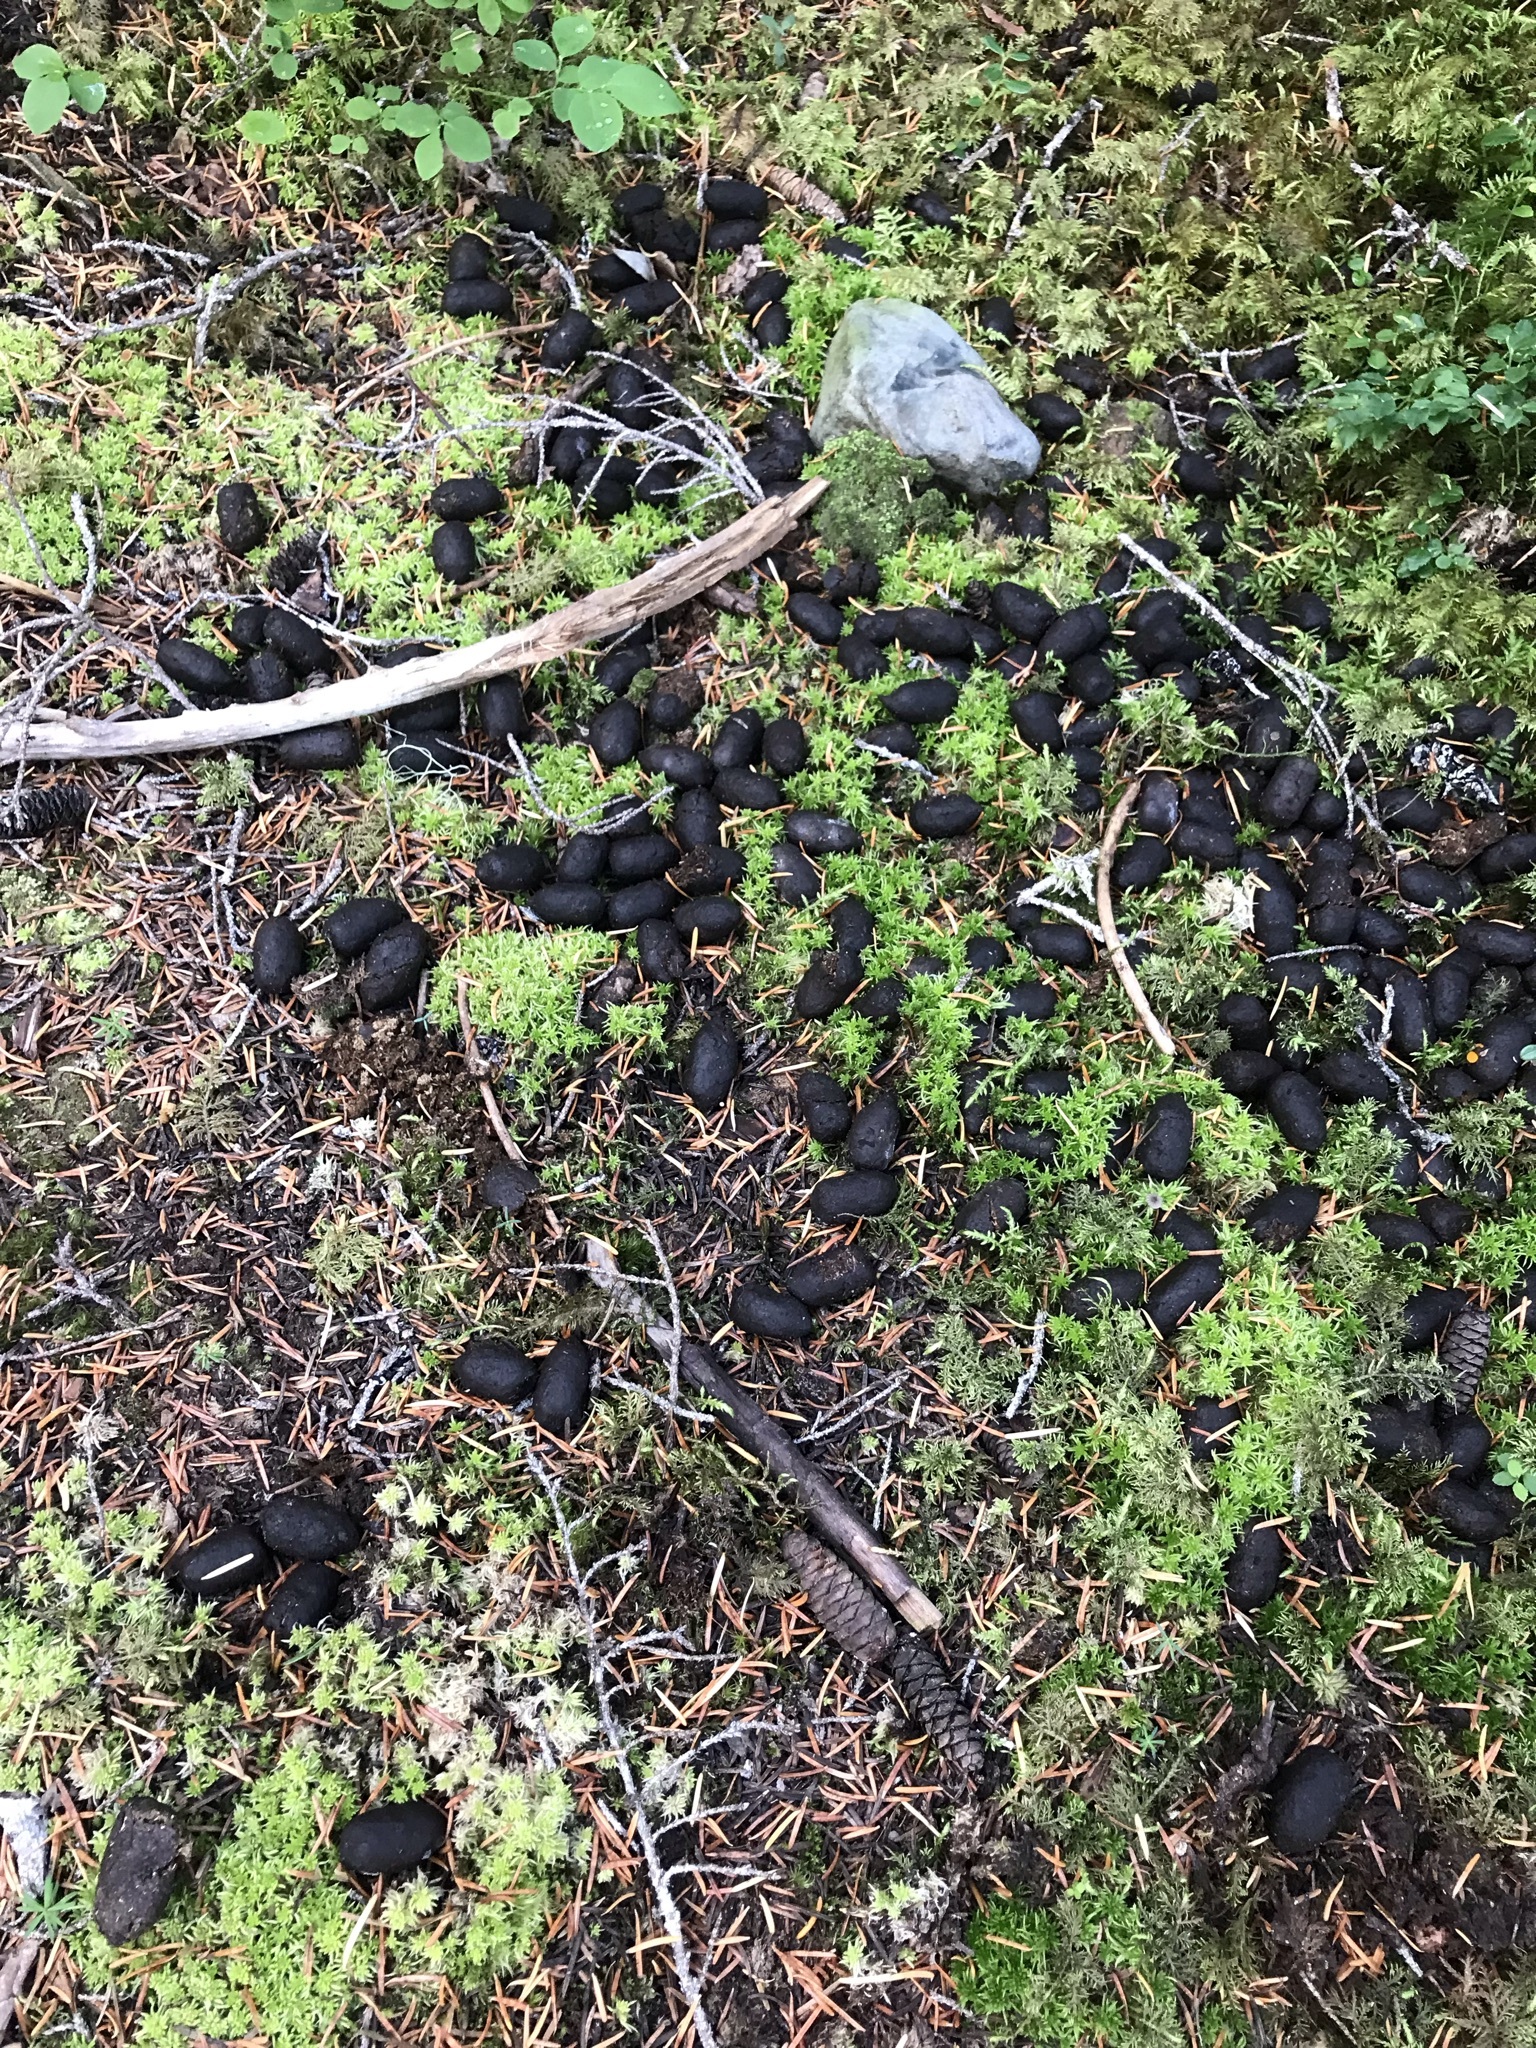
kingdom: Animalia
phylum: Chordata
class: Mammalia
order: Artiodactyla
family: Cervidae
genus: Alces
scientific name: Alces alces
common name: Moose
